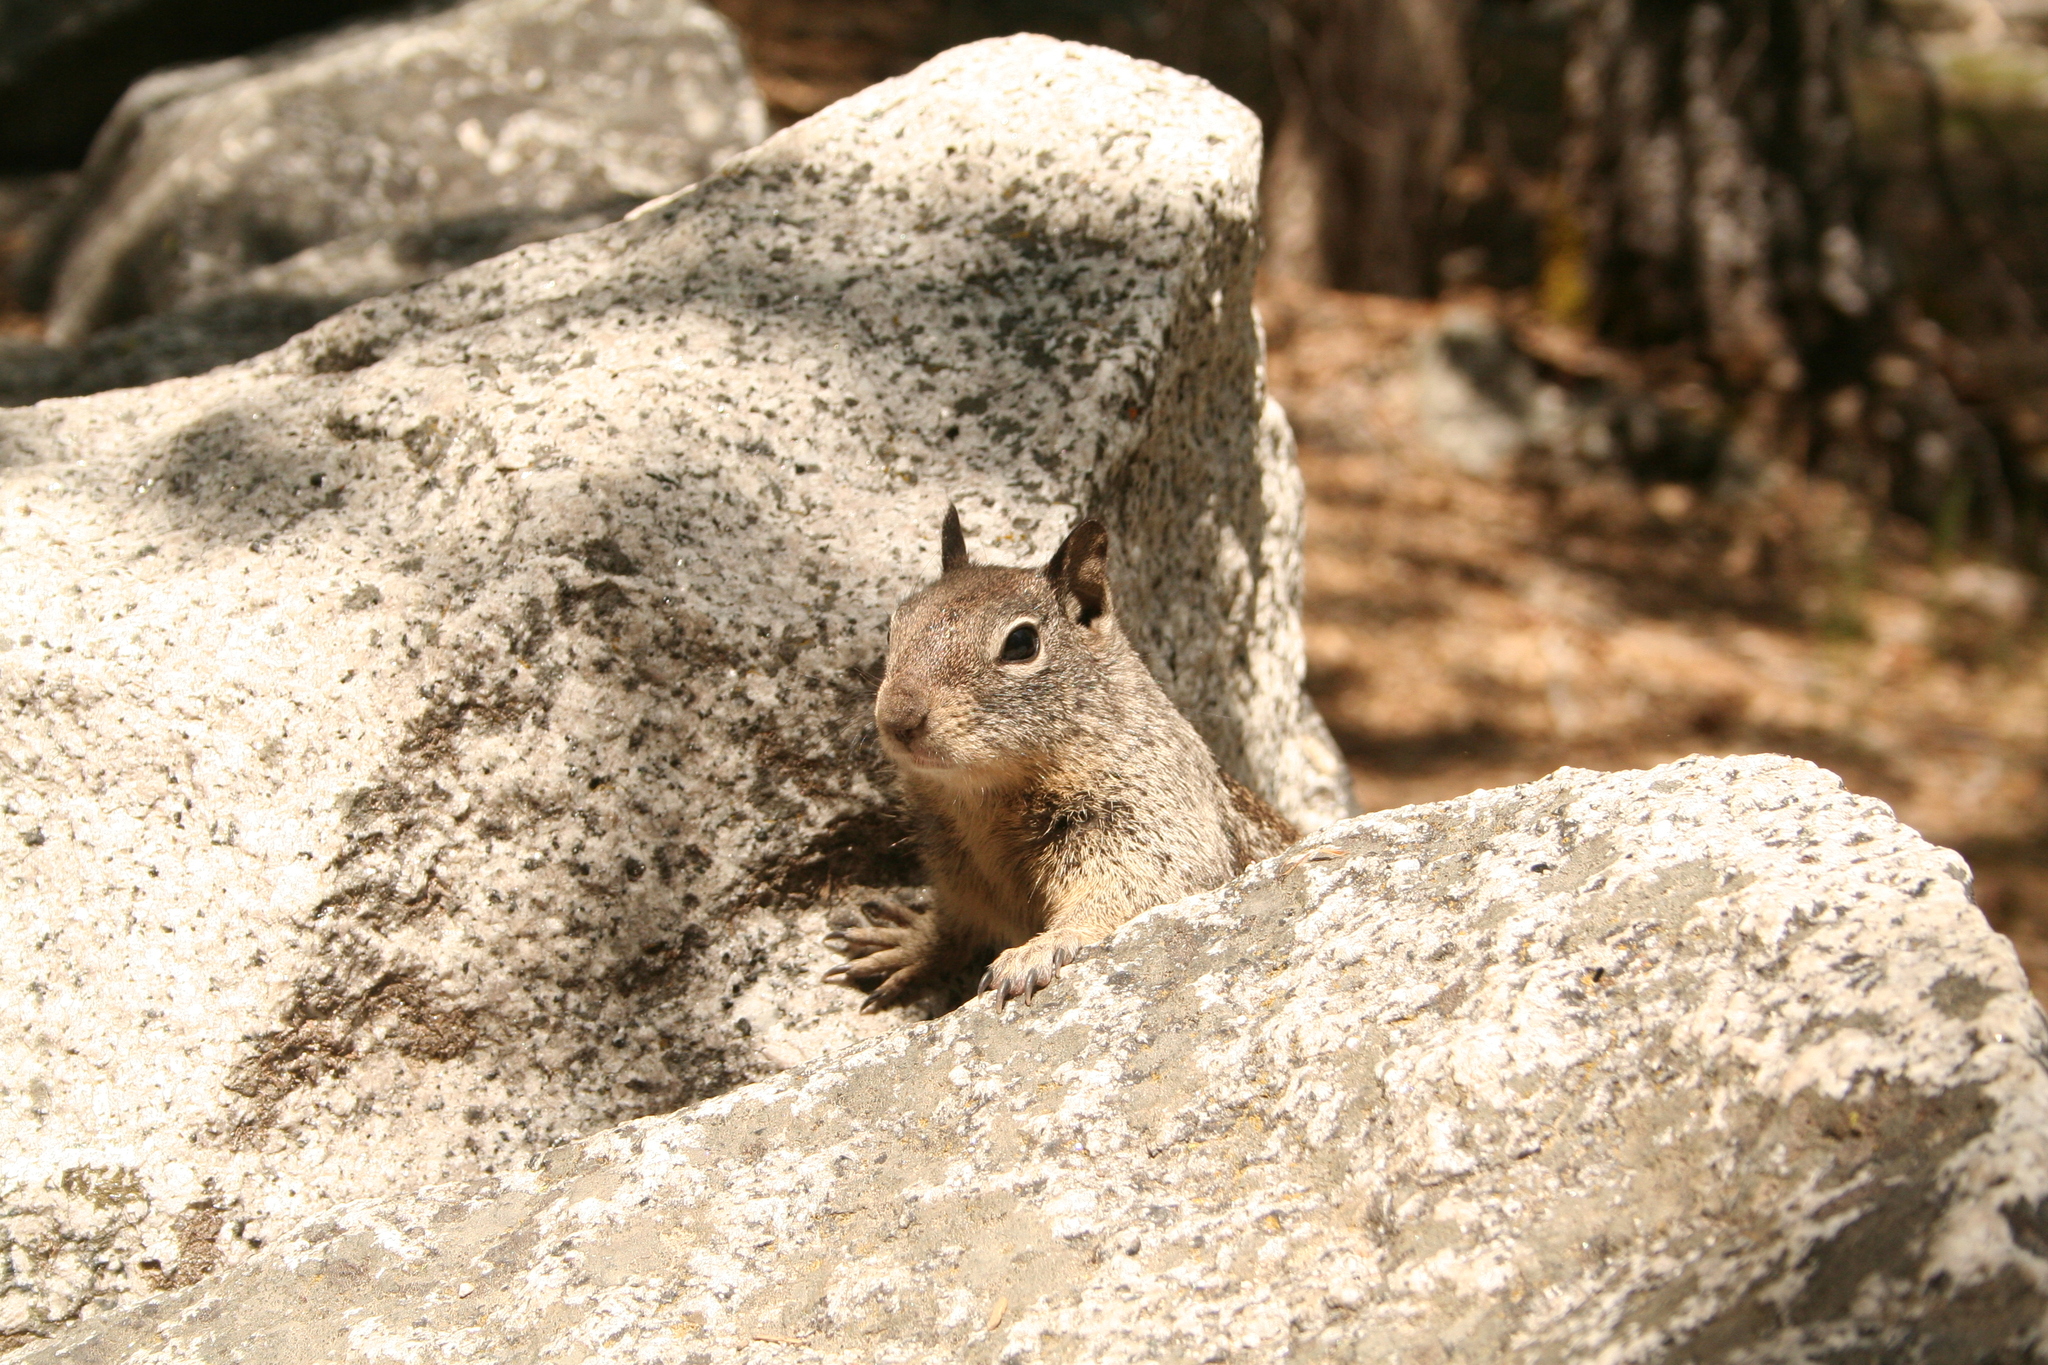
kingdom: Animalia
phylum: Chordata
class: Mammalia
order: Rodentia
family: Sciuridae
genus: Otospermophilus
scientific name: Otospermophilus beecheyi
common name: California ground squirrel
